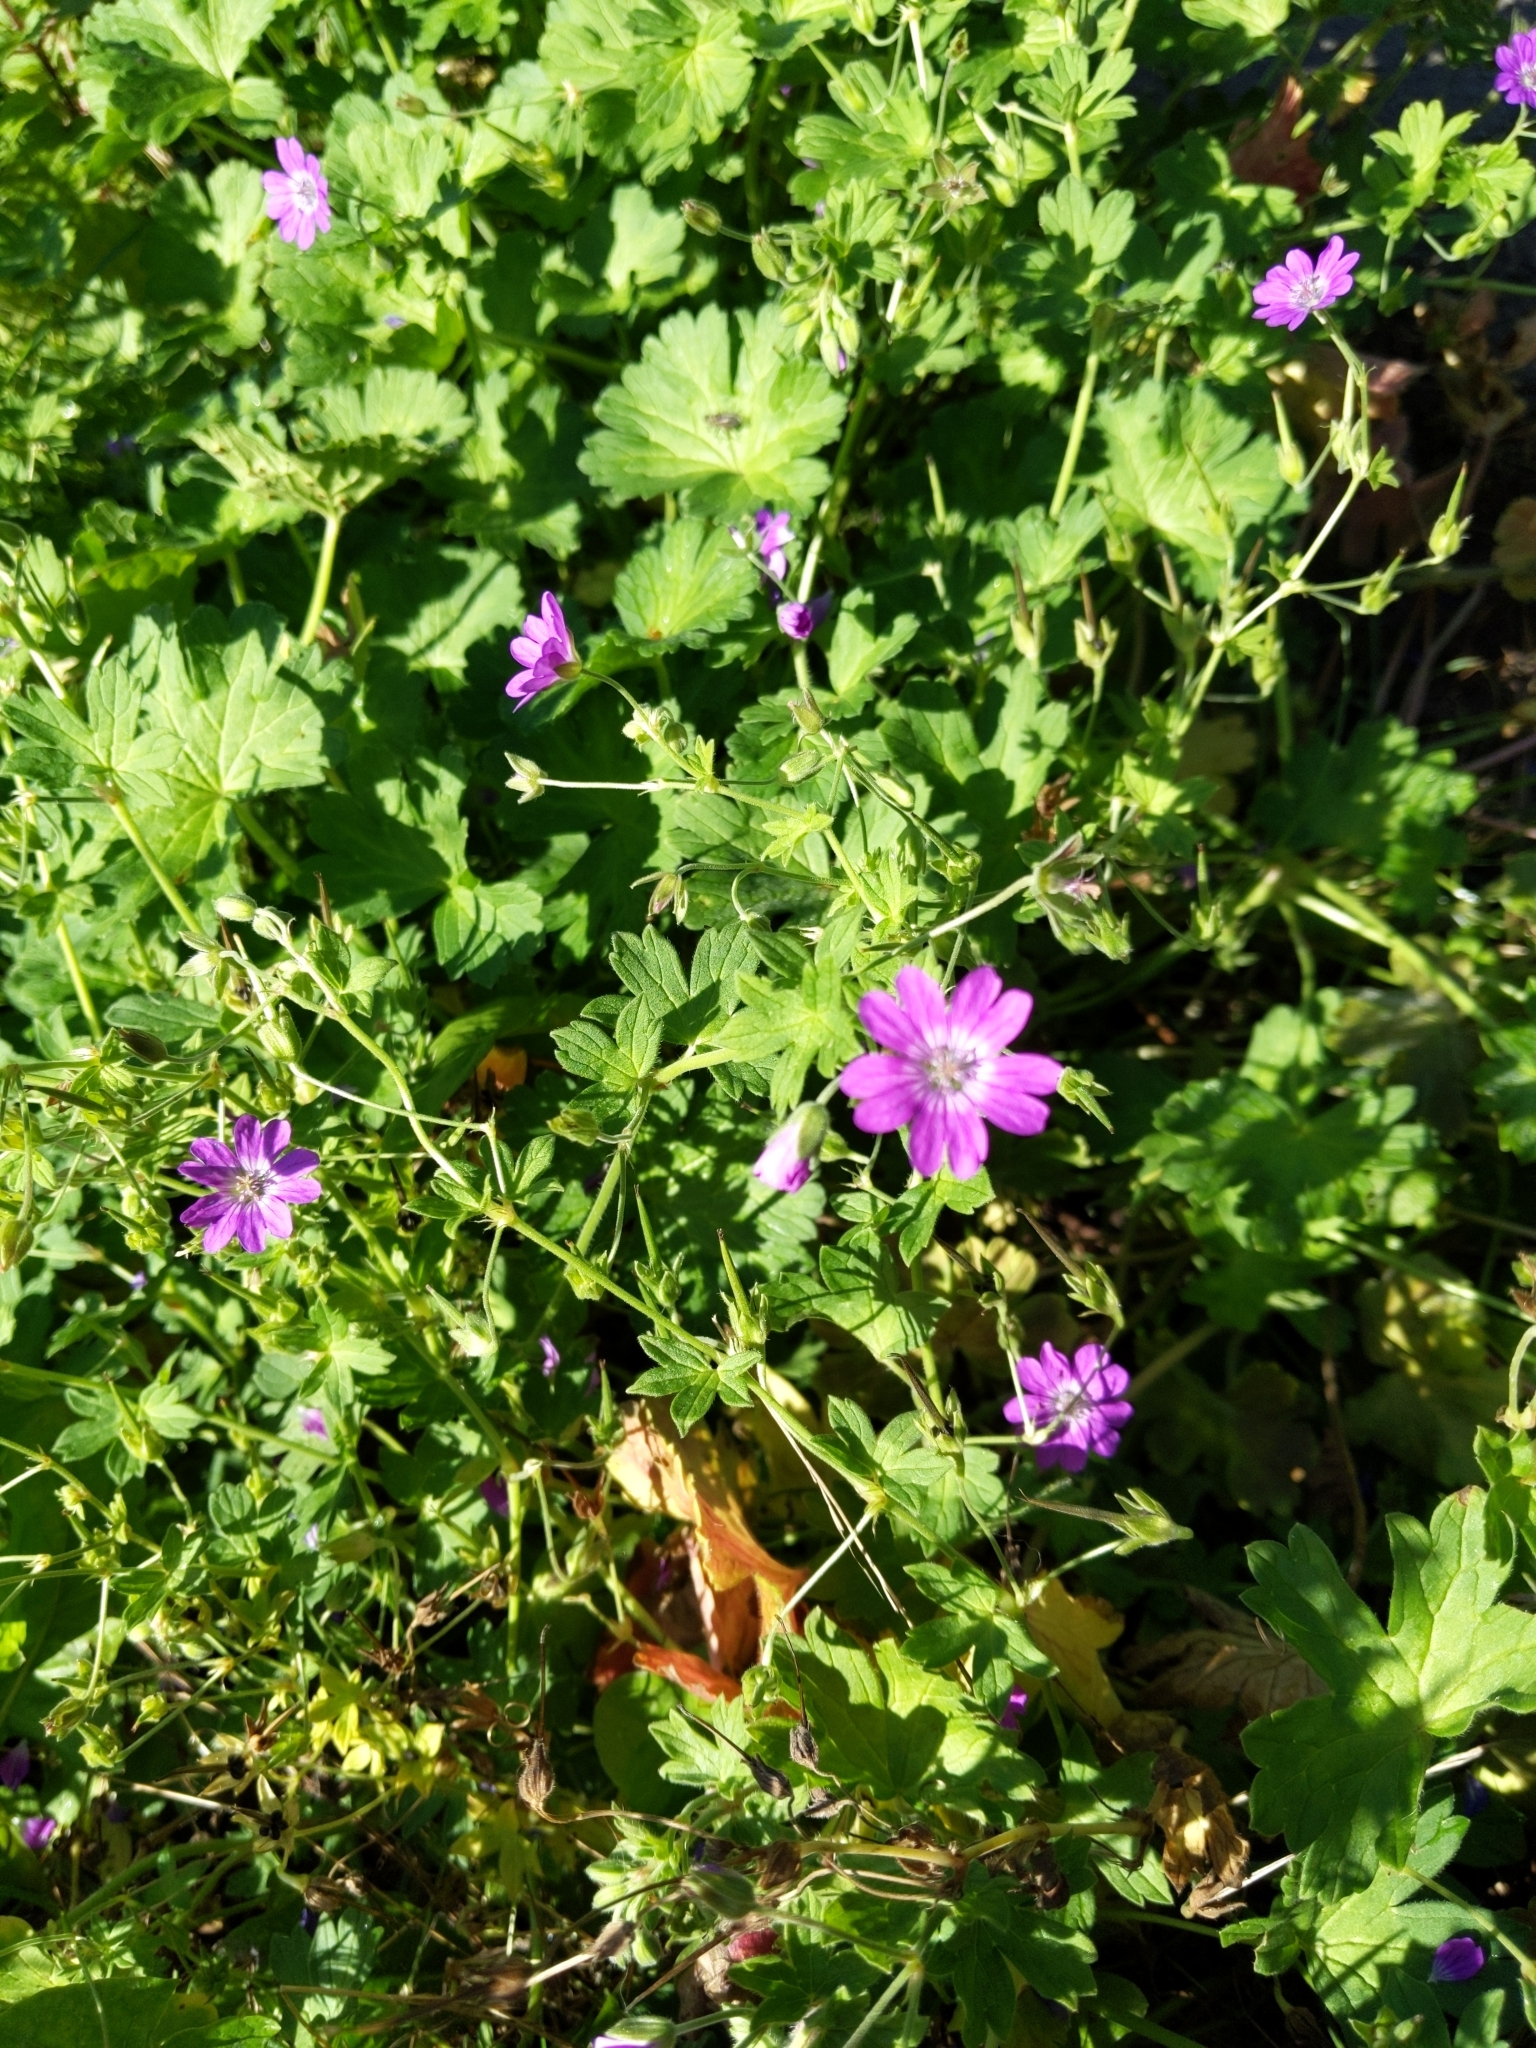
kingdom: Plantae
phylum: Tracheophyta
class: Magnoliopsida
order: Geraniales
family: Geraniaceae
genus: Geranium
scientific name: Geranium pyrenaicum
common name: Hedgerow crane's-bill
